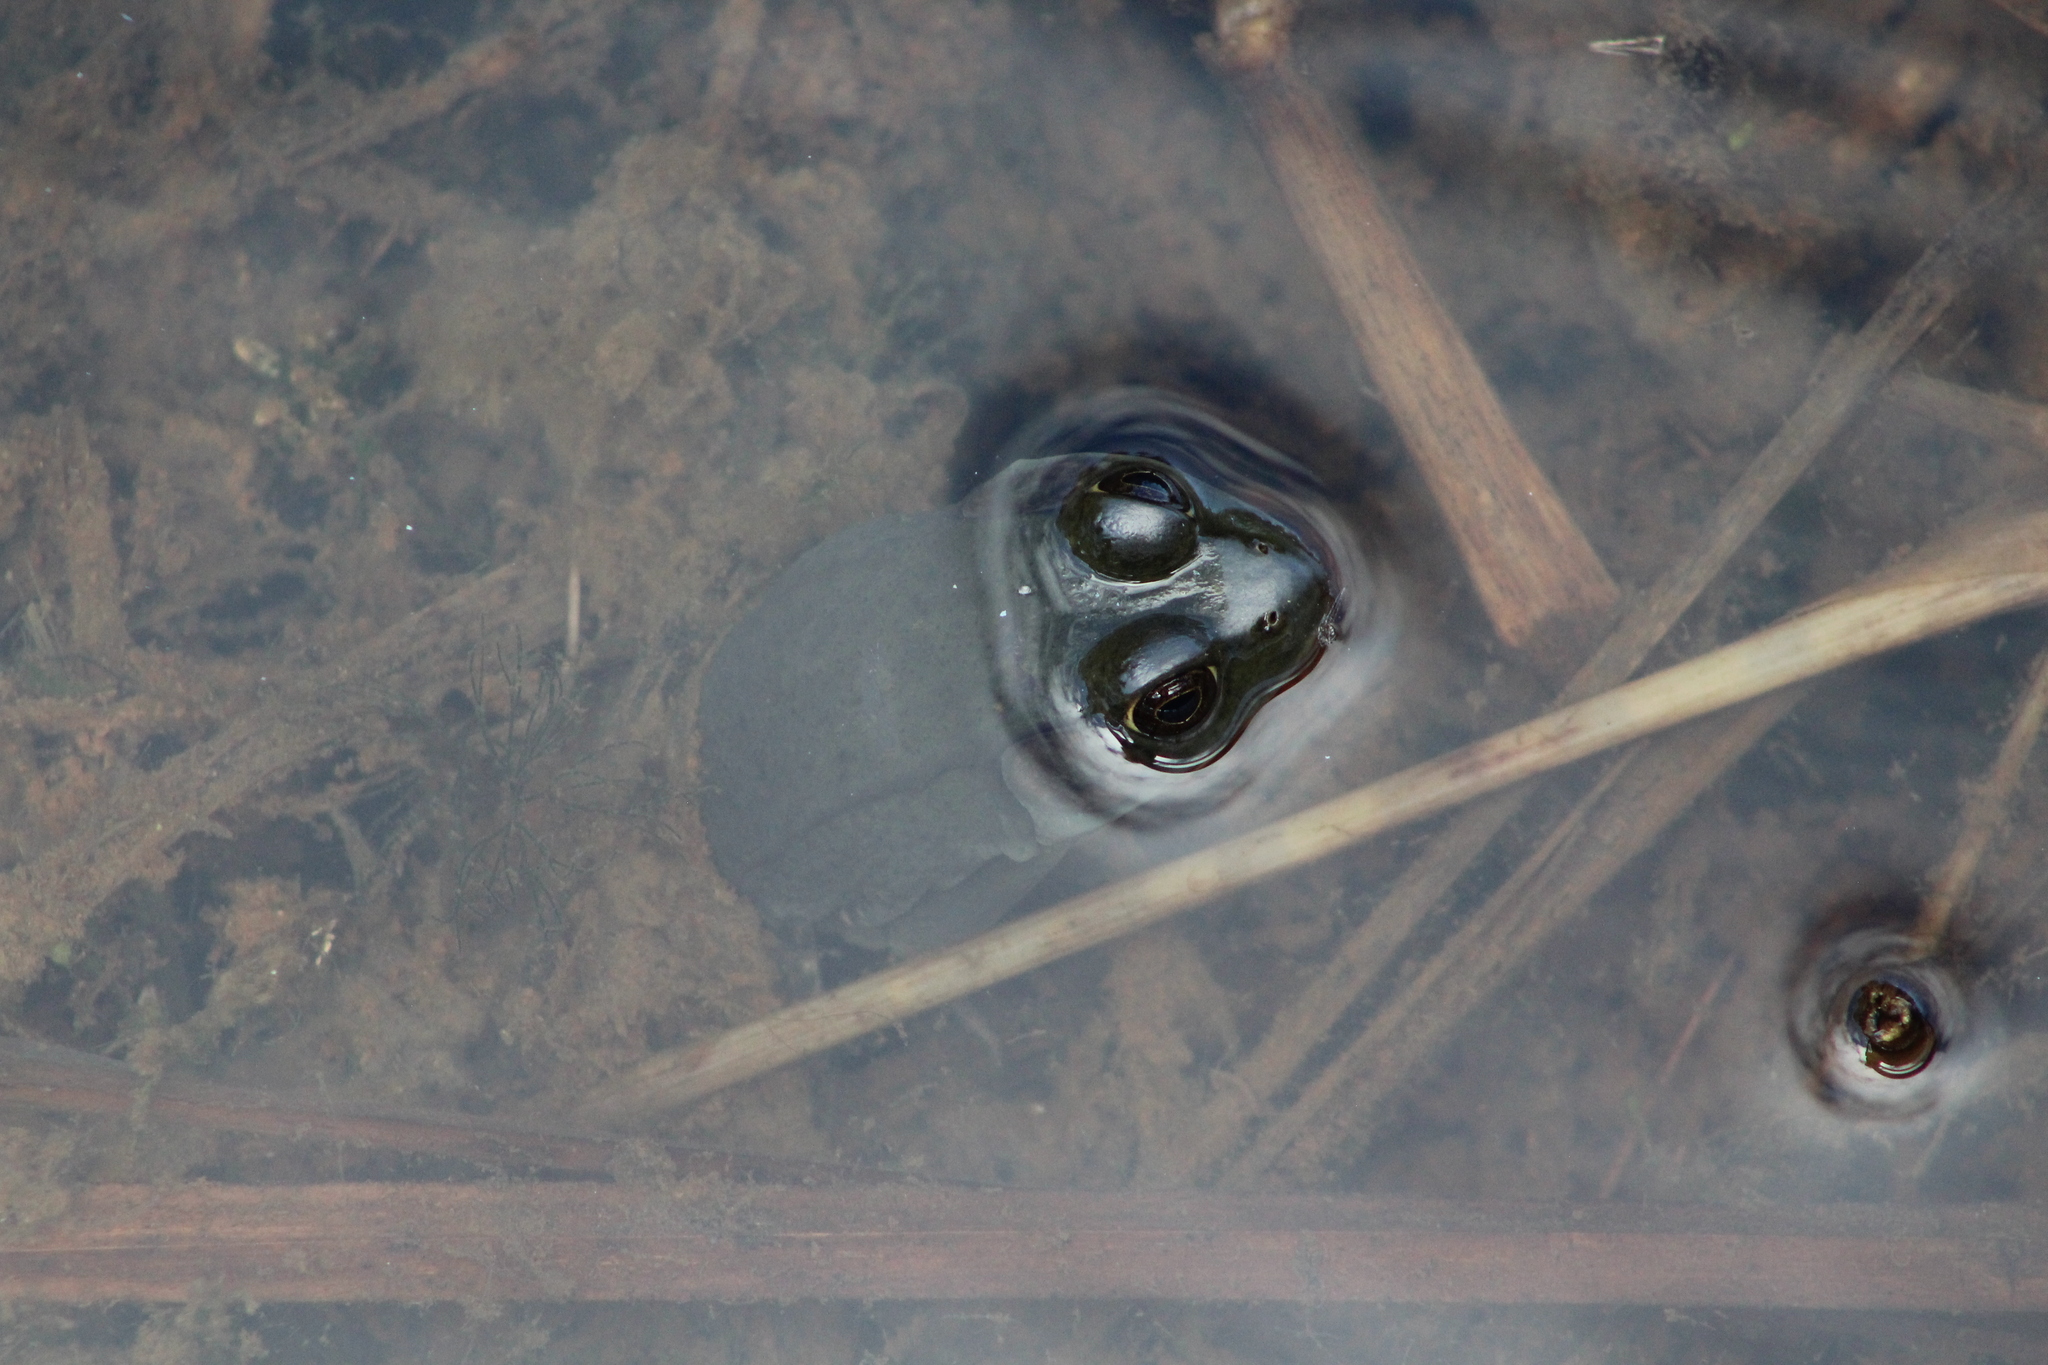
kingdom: Animalia
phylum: Chordata
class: Amphibia
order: Anura
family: Ranidae
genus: Lithobates
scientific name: Lithobates clamitans
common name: Green frog
